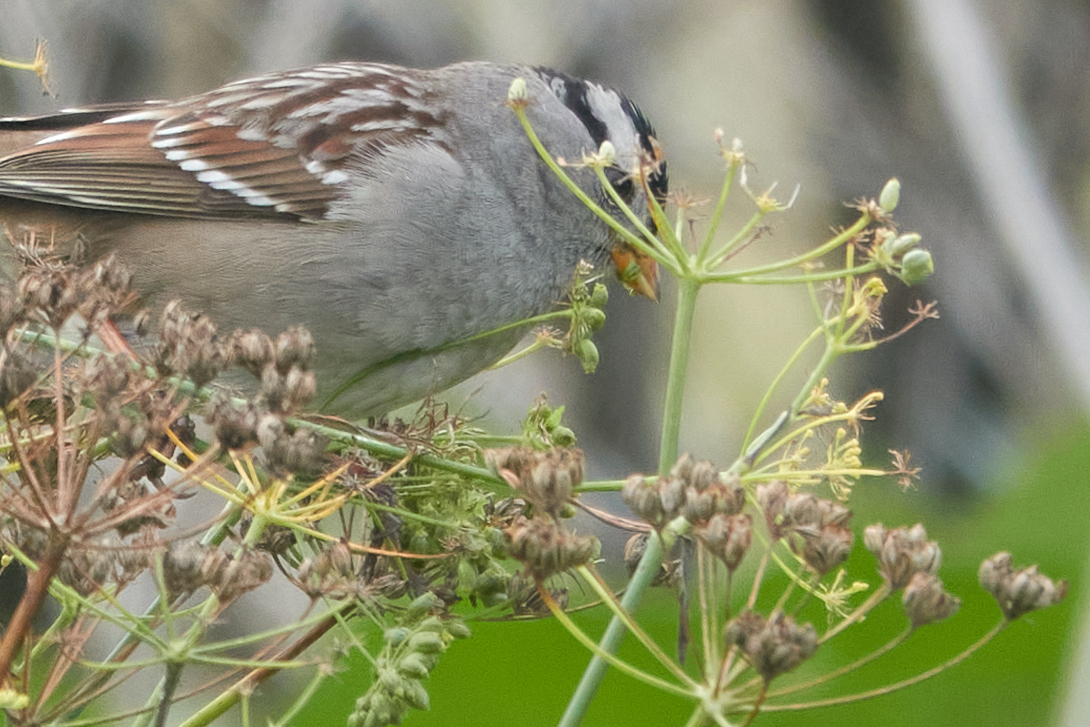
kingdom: Animalia
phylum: Chordata
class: Aves
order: Passeriformes
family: Passerellidae
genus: Zonotrichia
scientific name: Zonotrichia leucophrys
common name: White-crowned sparrow
